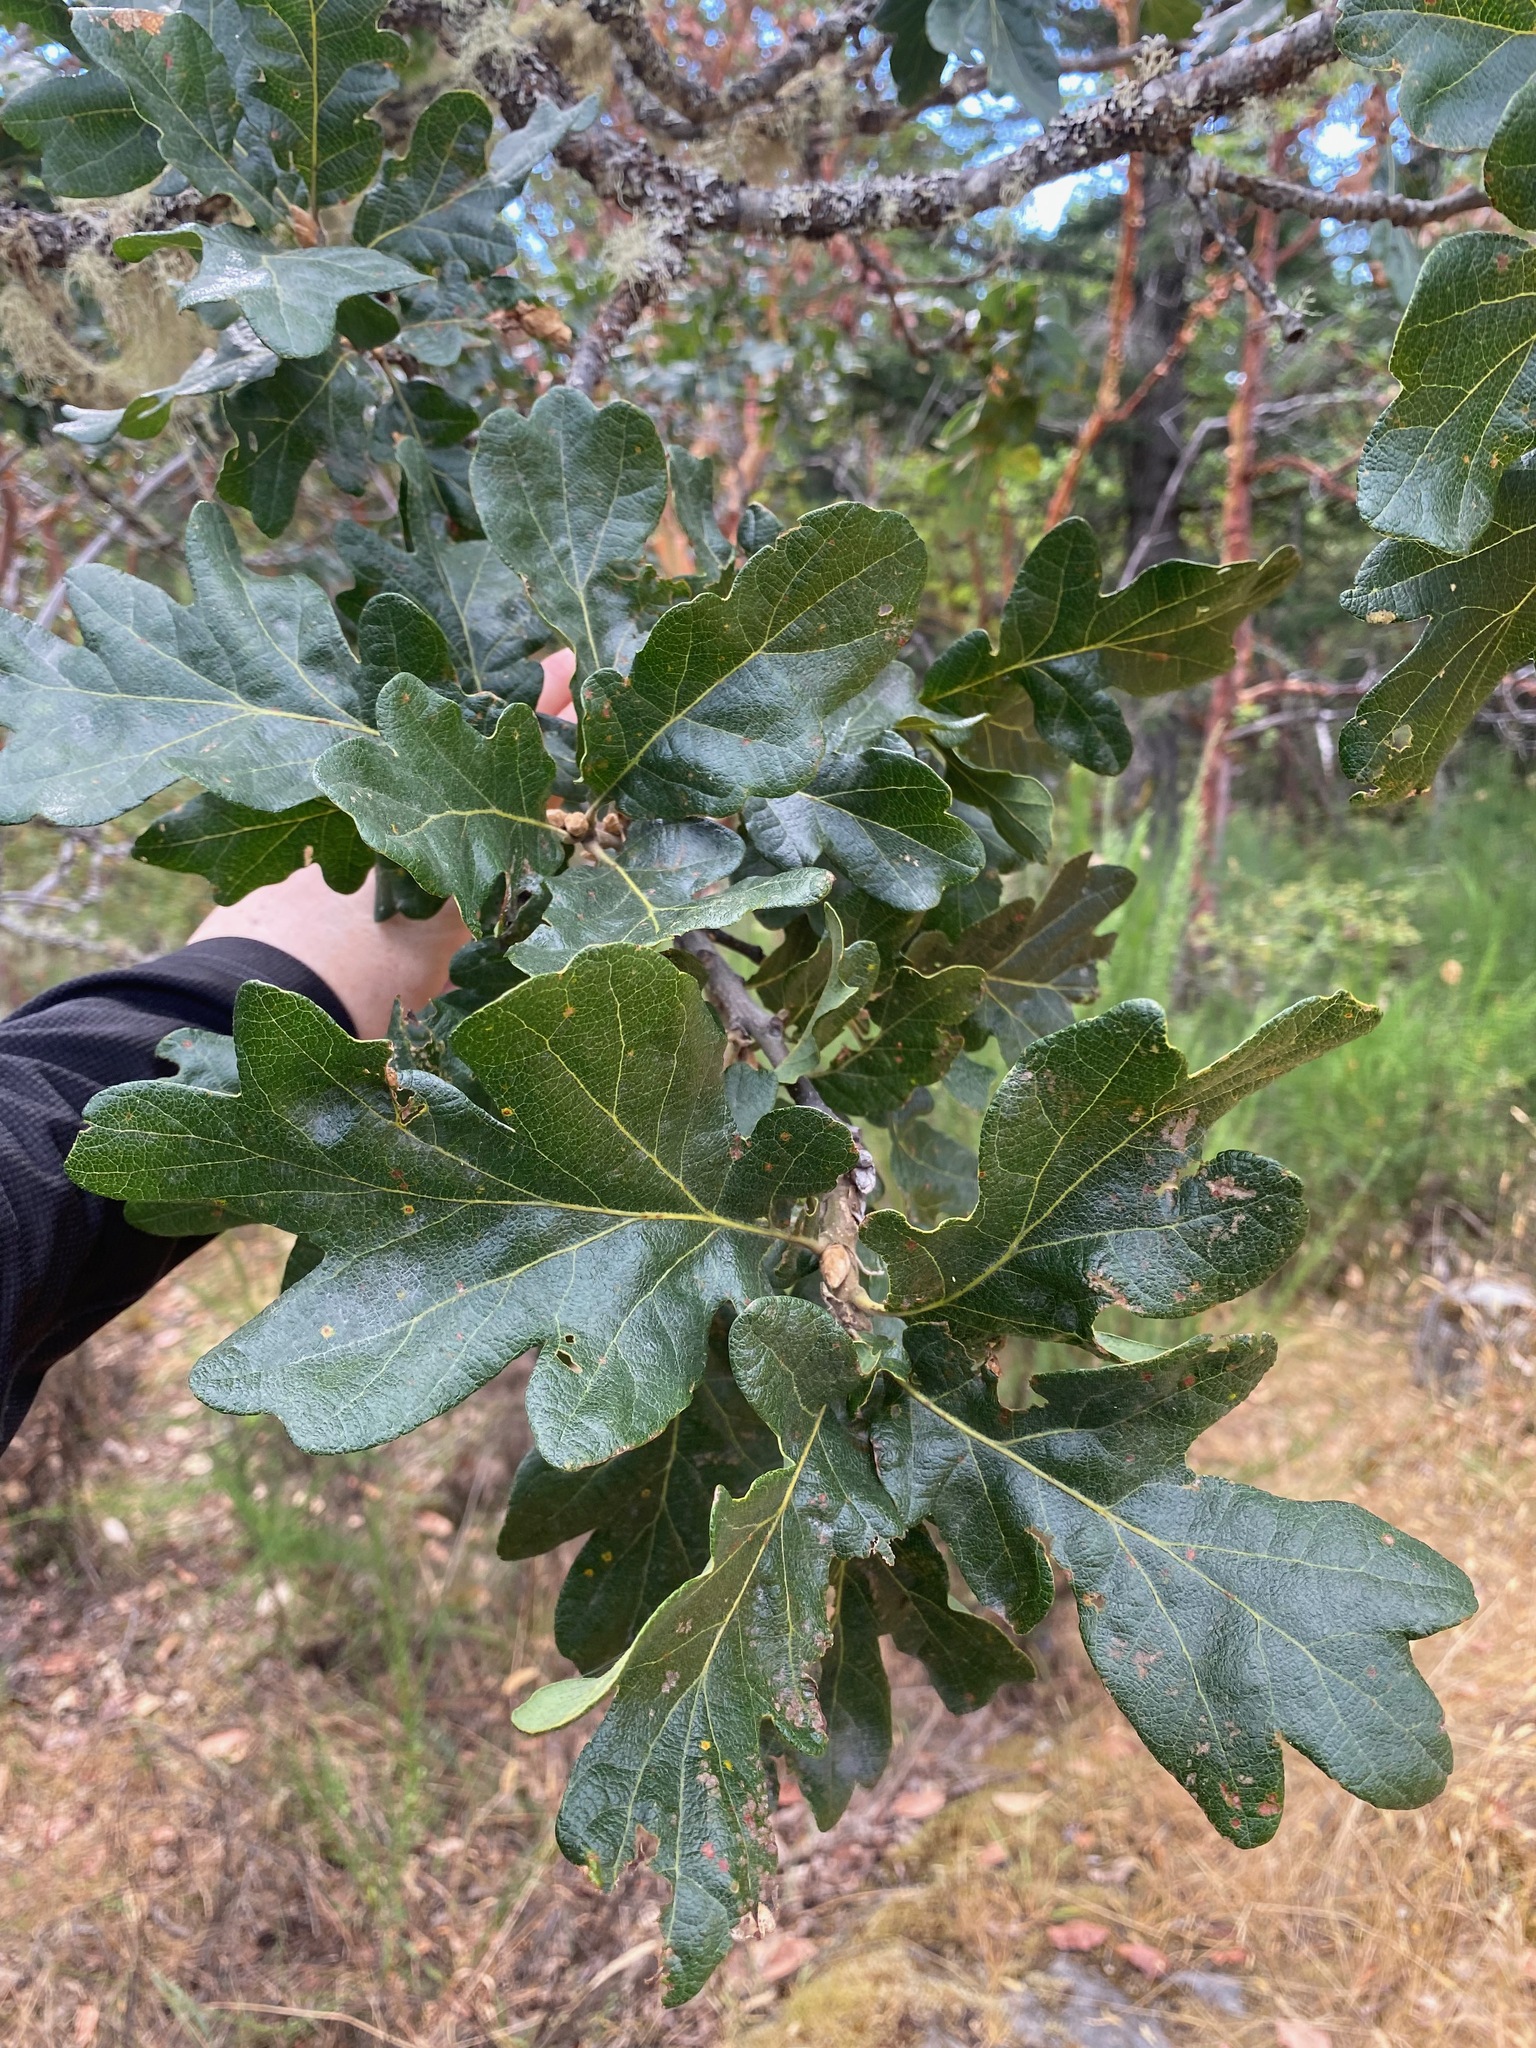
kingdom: Plantae
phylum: Tracheophyta
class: Magnoliopsida
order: Fagales
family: Fagaceae
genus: Quercus
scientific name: Quercus garryana
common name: Garry oak
